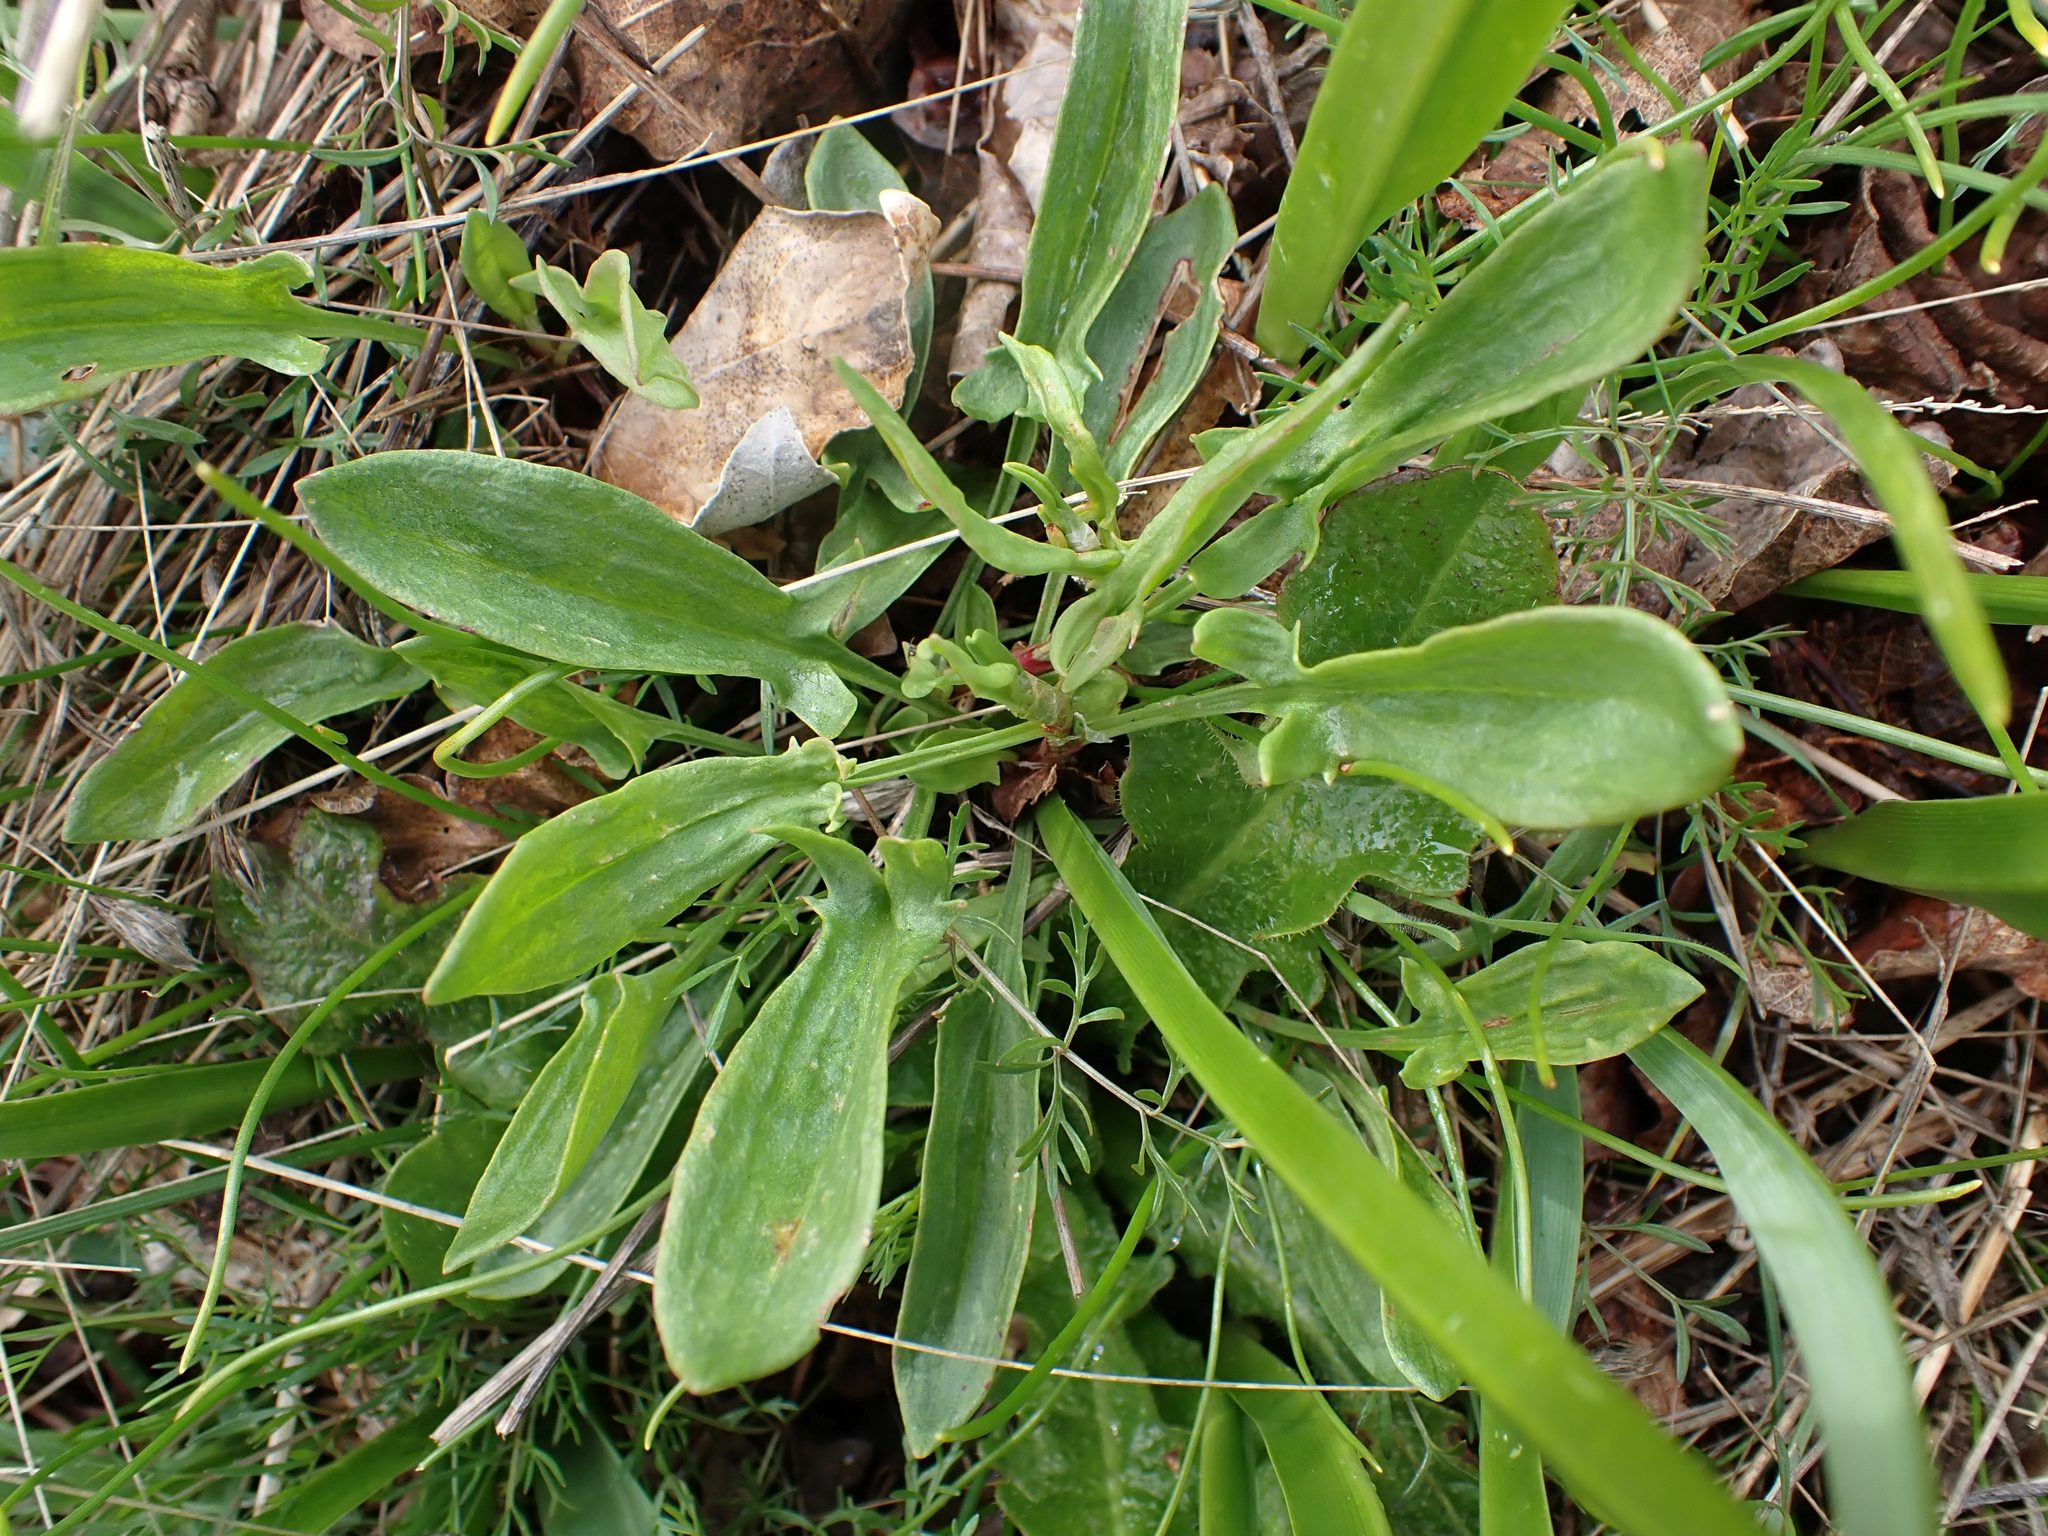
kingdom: Plantae
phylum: Tracheophyta
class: Magnoliopsida
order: Caryophyllales
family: Polygonaceae
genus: Rumex
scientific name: Rumex acetosella
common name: Common sheep sorrel
